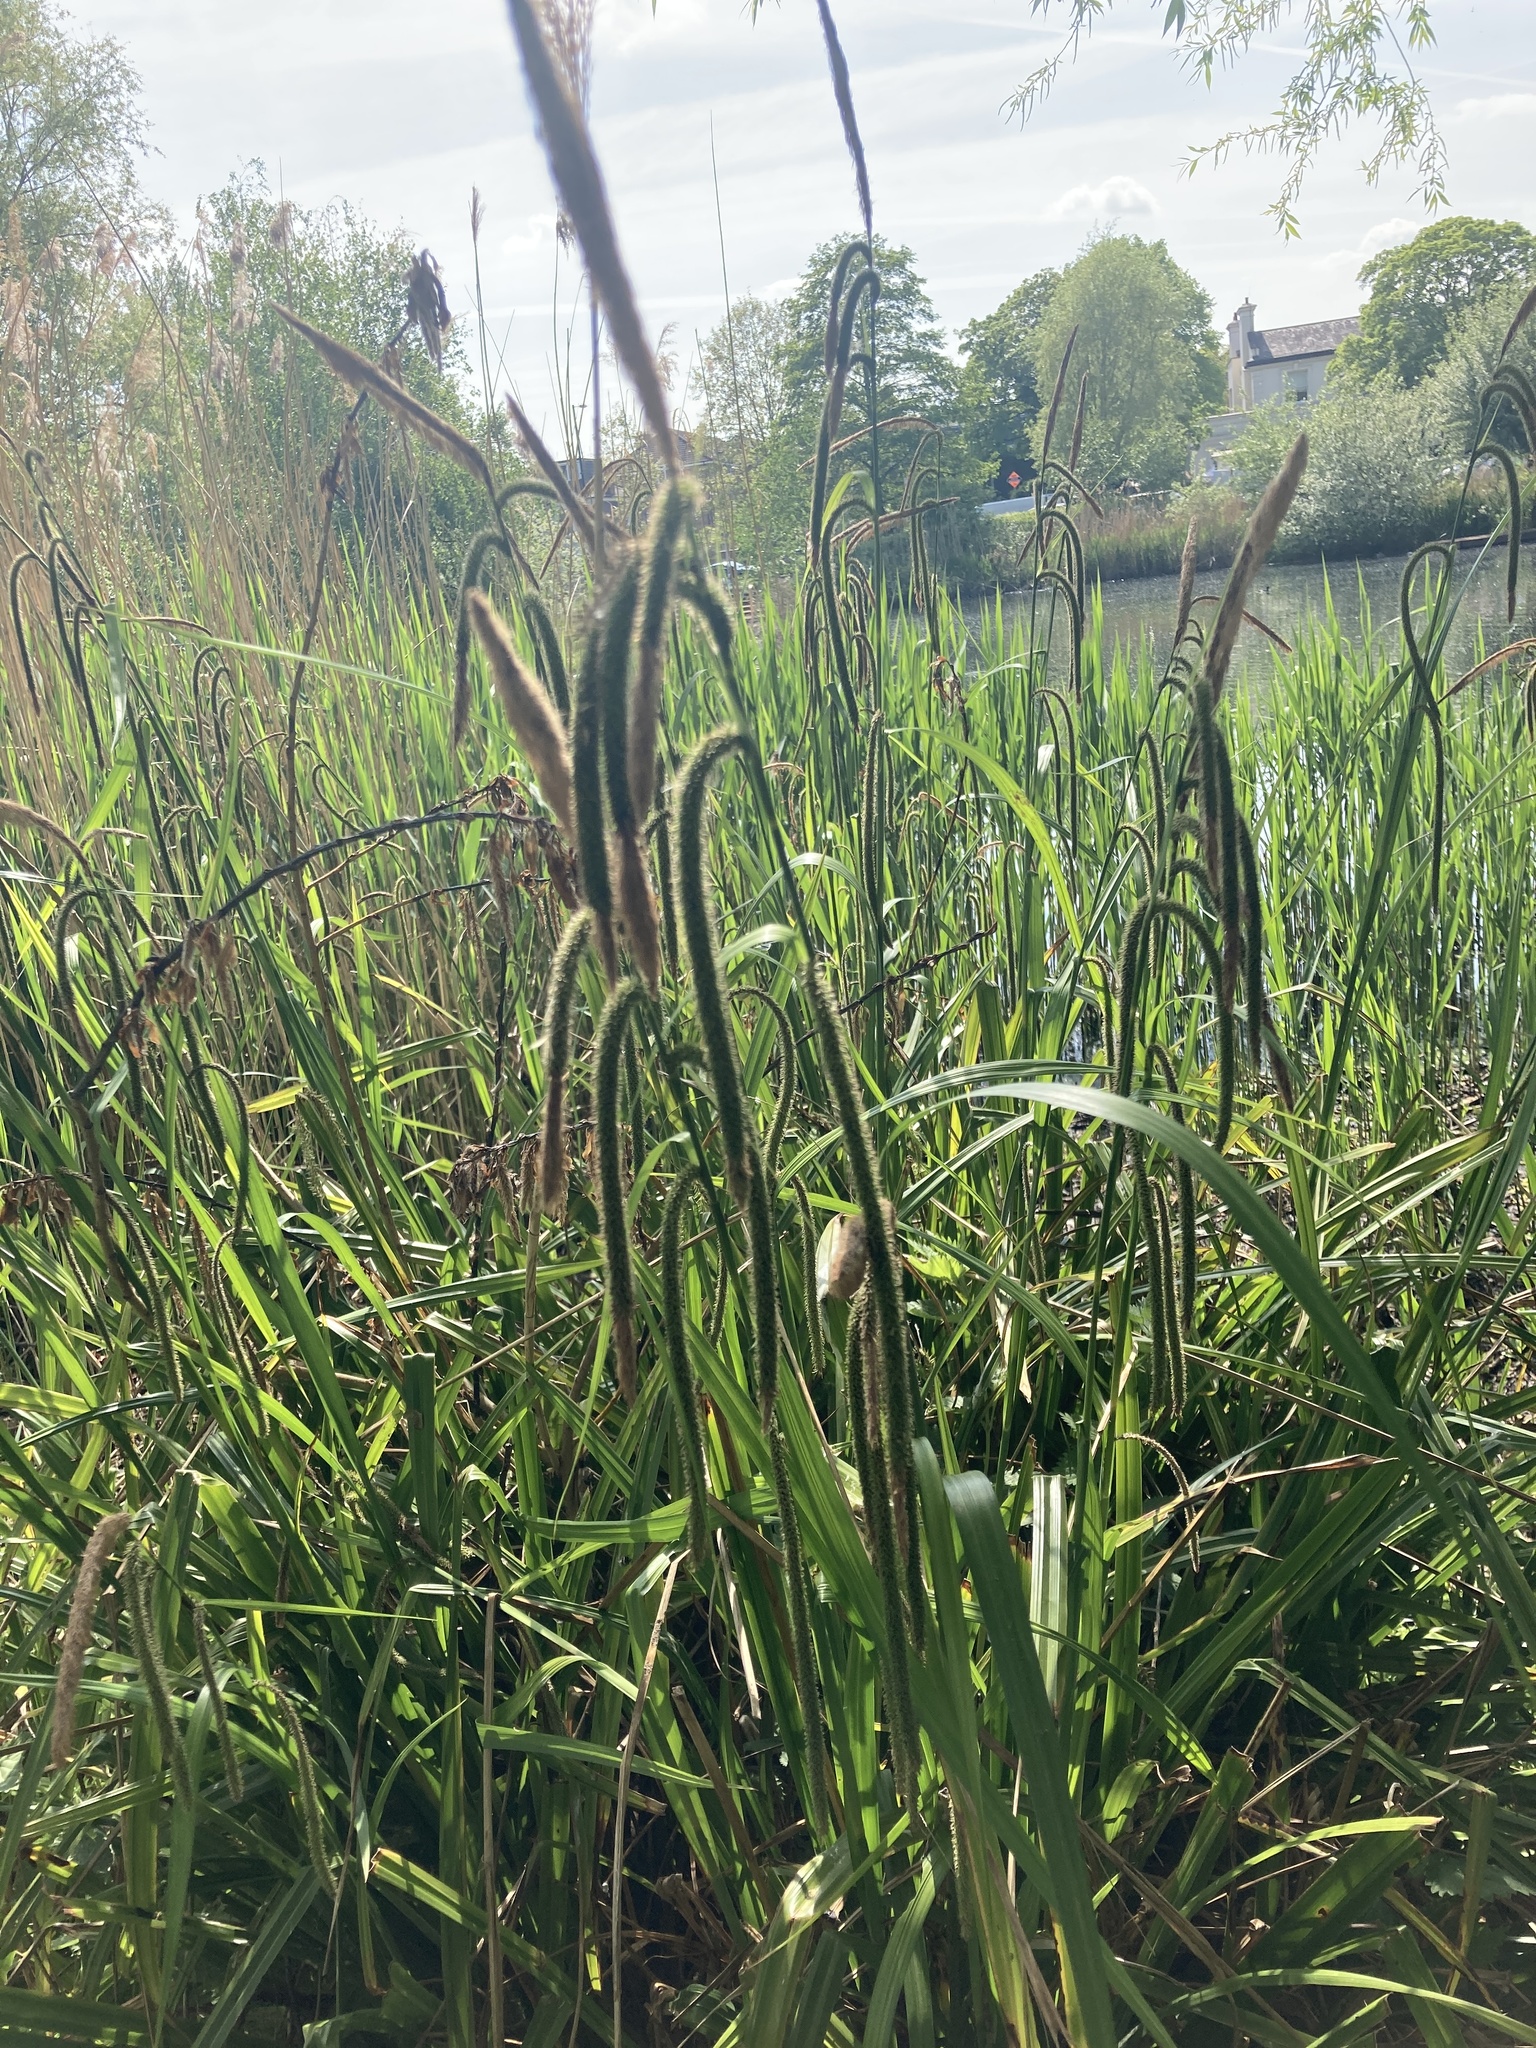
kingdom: Plantae
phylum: Tracheophyta
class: Liliopsida
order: Poales
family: Cyperaceae
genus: Carex
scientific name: Carex pendula
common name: Pendulous sedge
